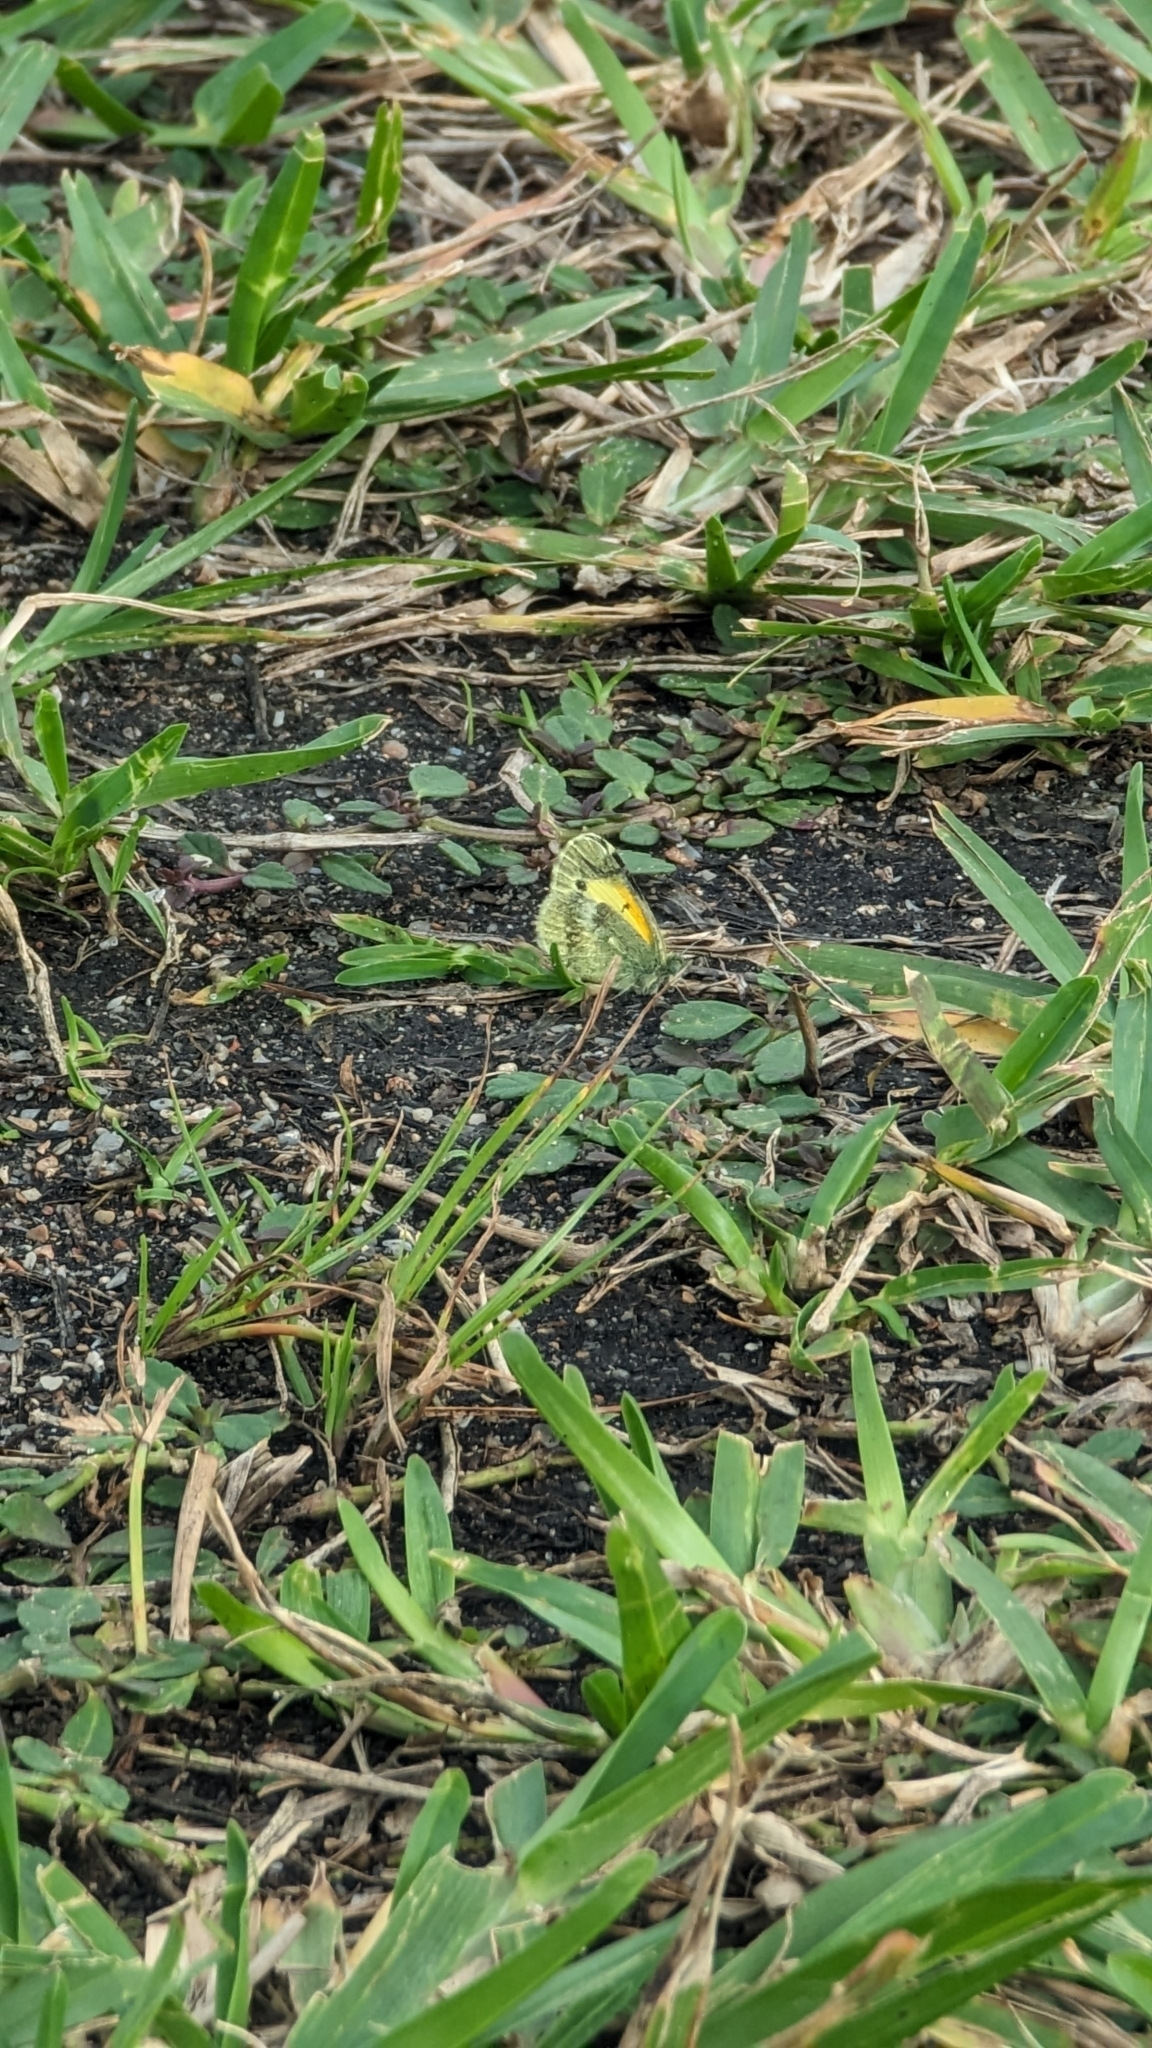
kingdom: Animalia
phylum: Arthropoda
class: Insecta
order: Lepidoptera
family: Pieridae
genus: Nathalis
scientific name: Nathalis iole
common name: Dainty sulphur
